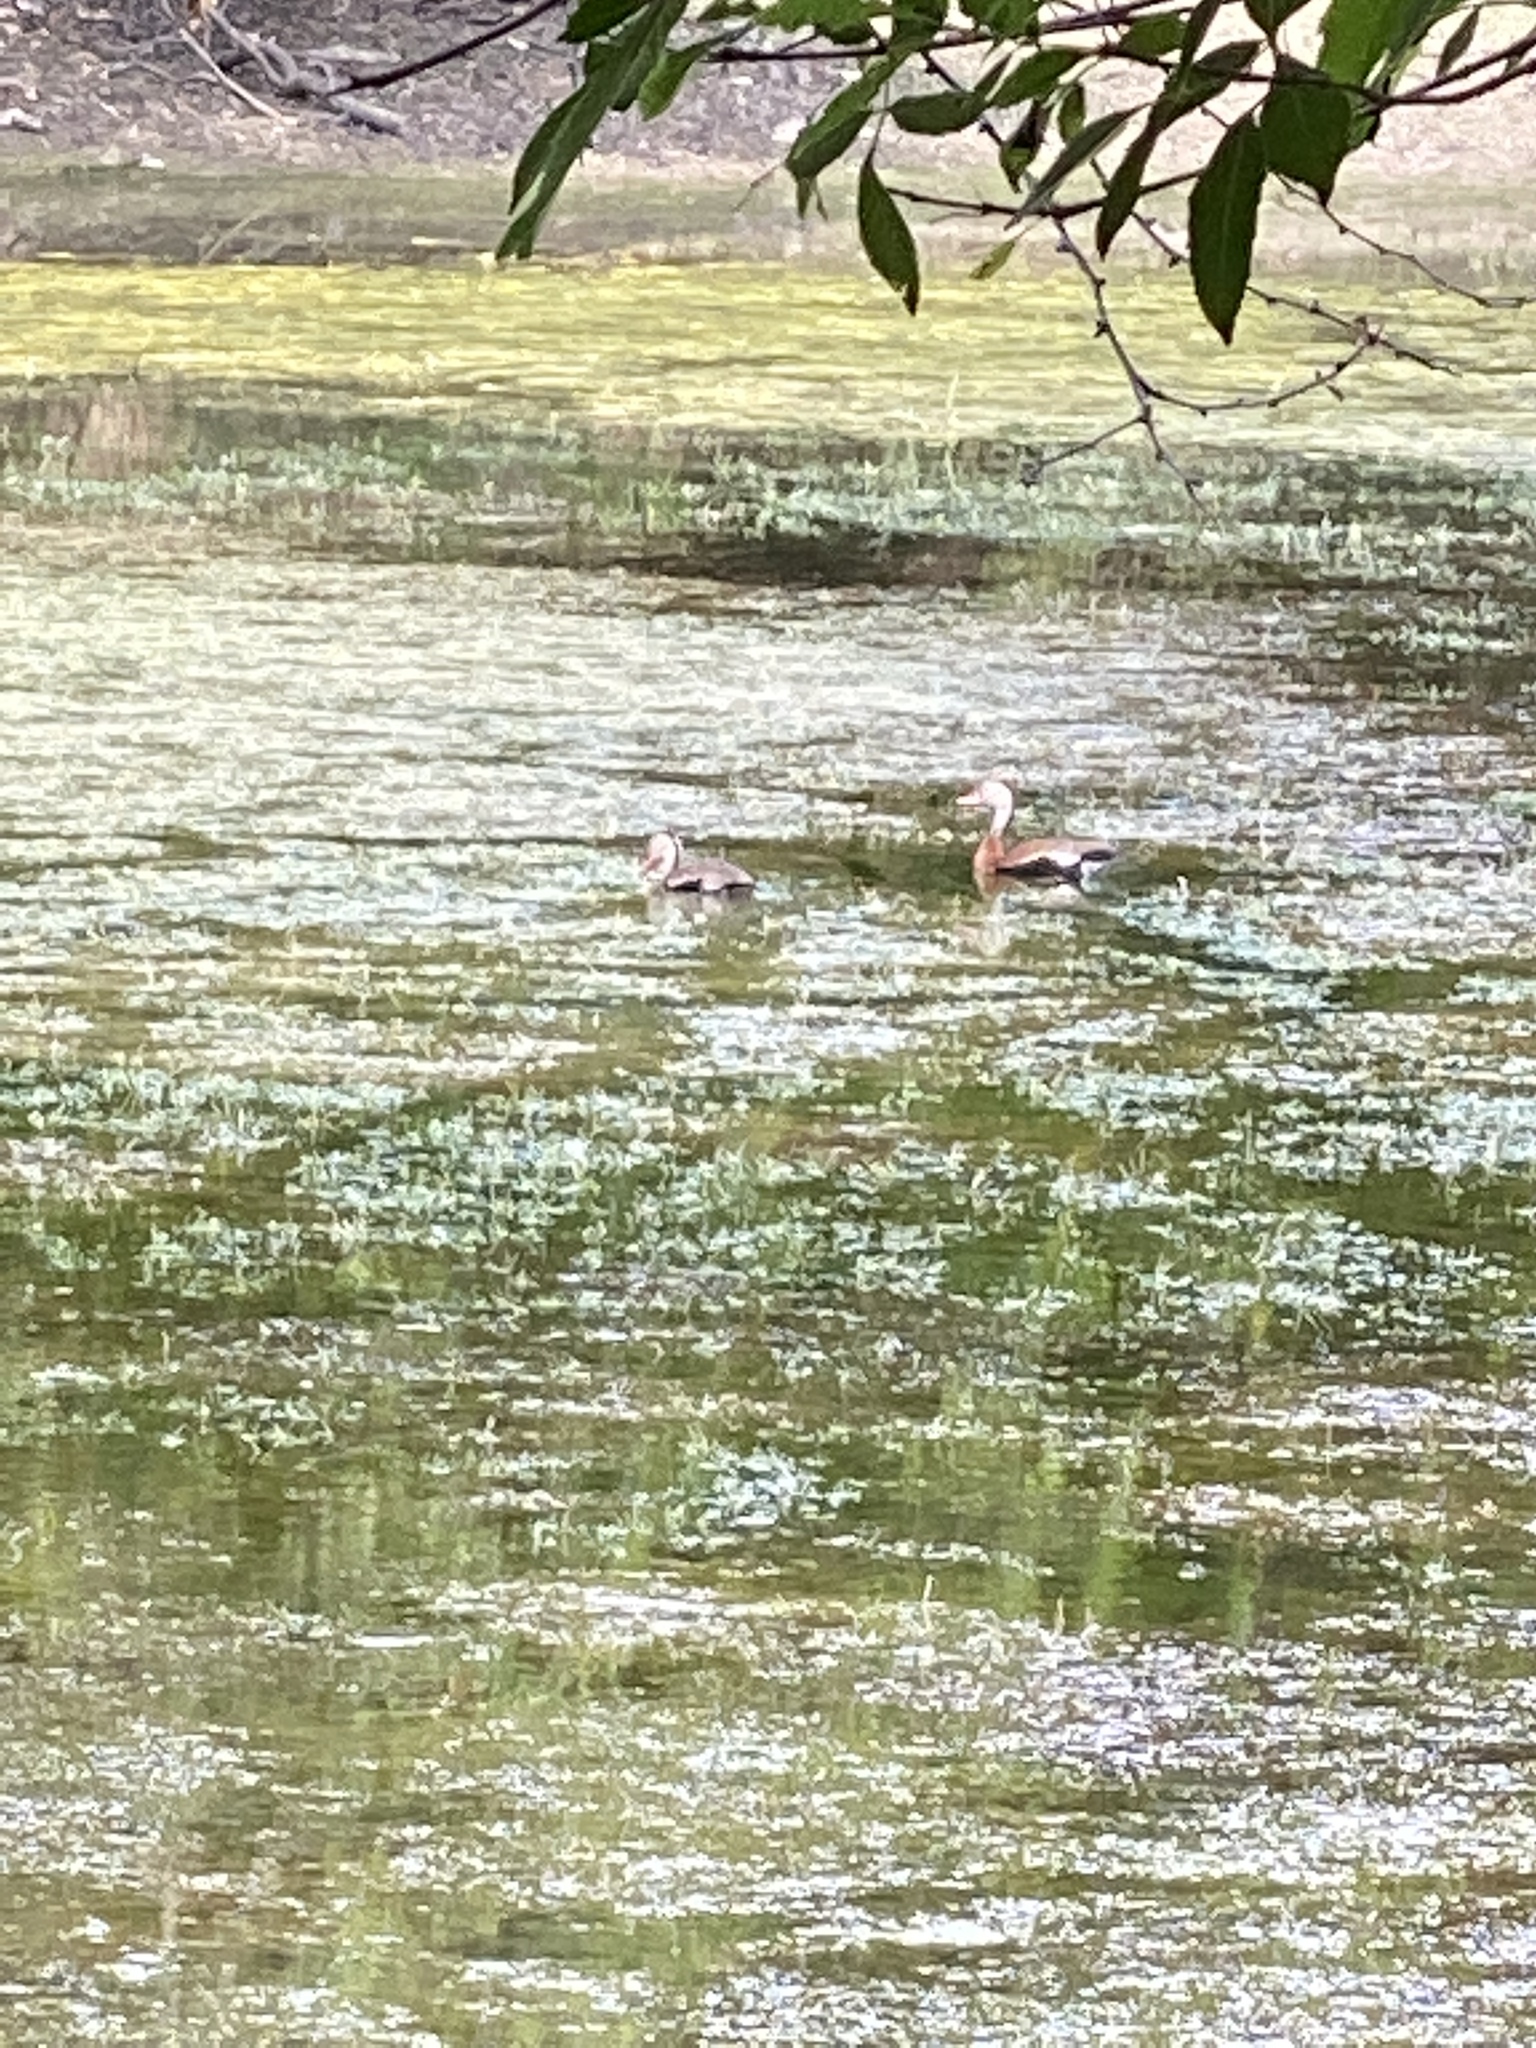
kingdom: Animalia
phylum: Chordata
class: Aves
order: Anseriformes
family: Anatidae
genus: Dendrocygna
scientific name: Dendrocygna autumnalis
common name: Black-bellied whistling duck
